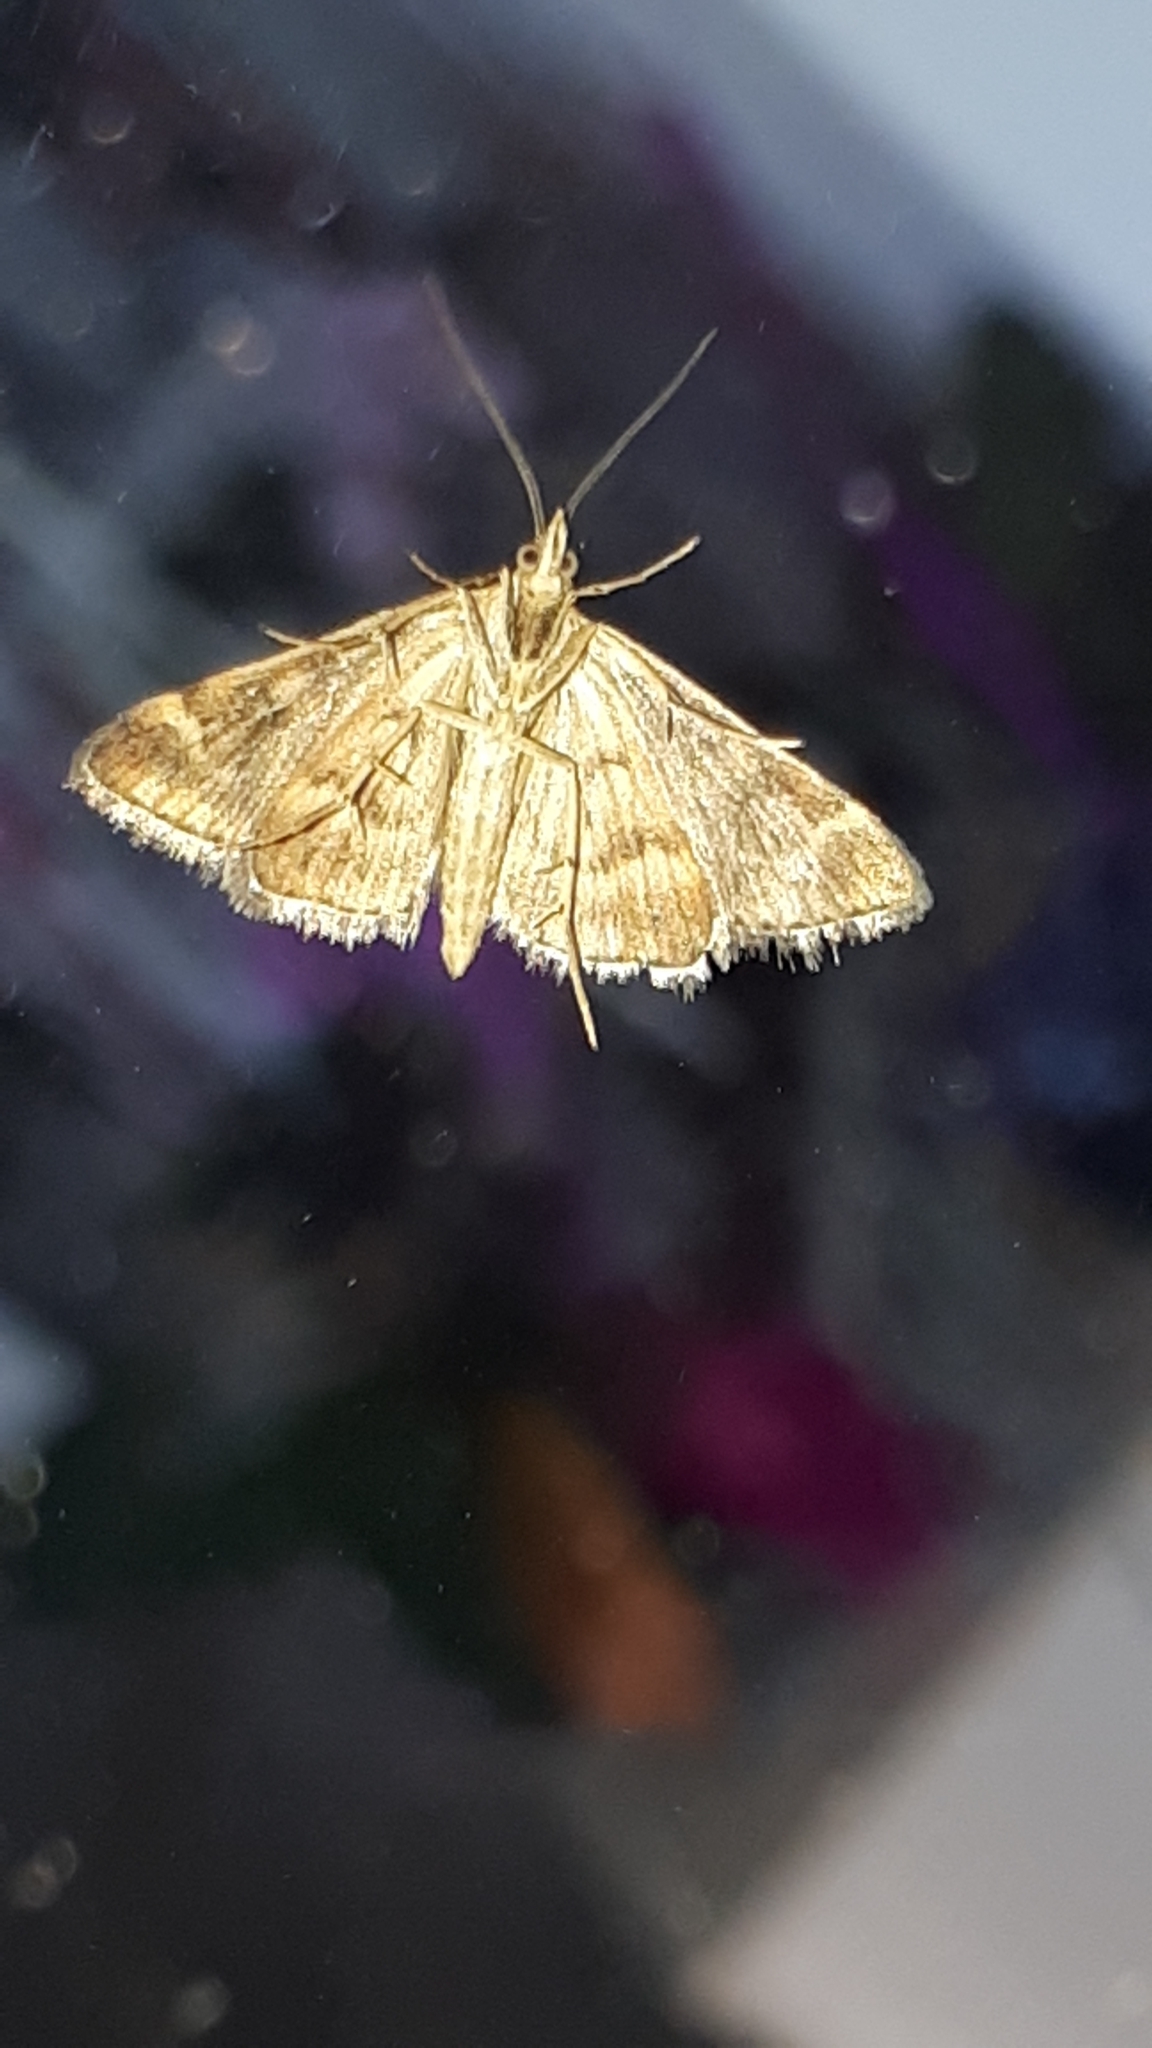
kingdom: Animalia
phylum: Arthropoda
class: Insecta
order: Lepidoptera
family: Crambidae
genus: Pyrausta
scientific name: Pyrausta despicata
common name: Straw-barred pearl
